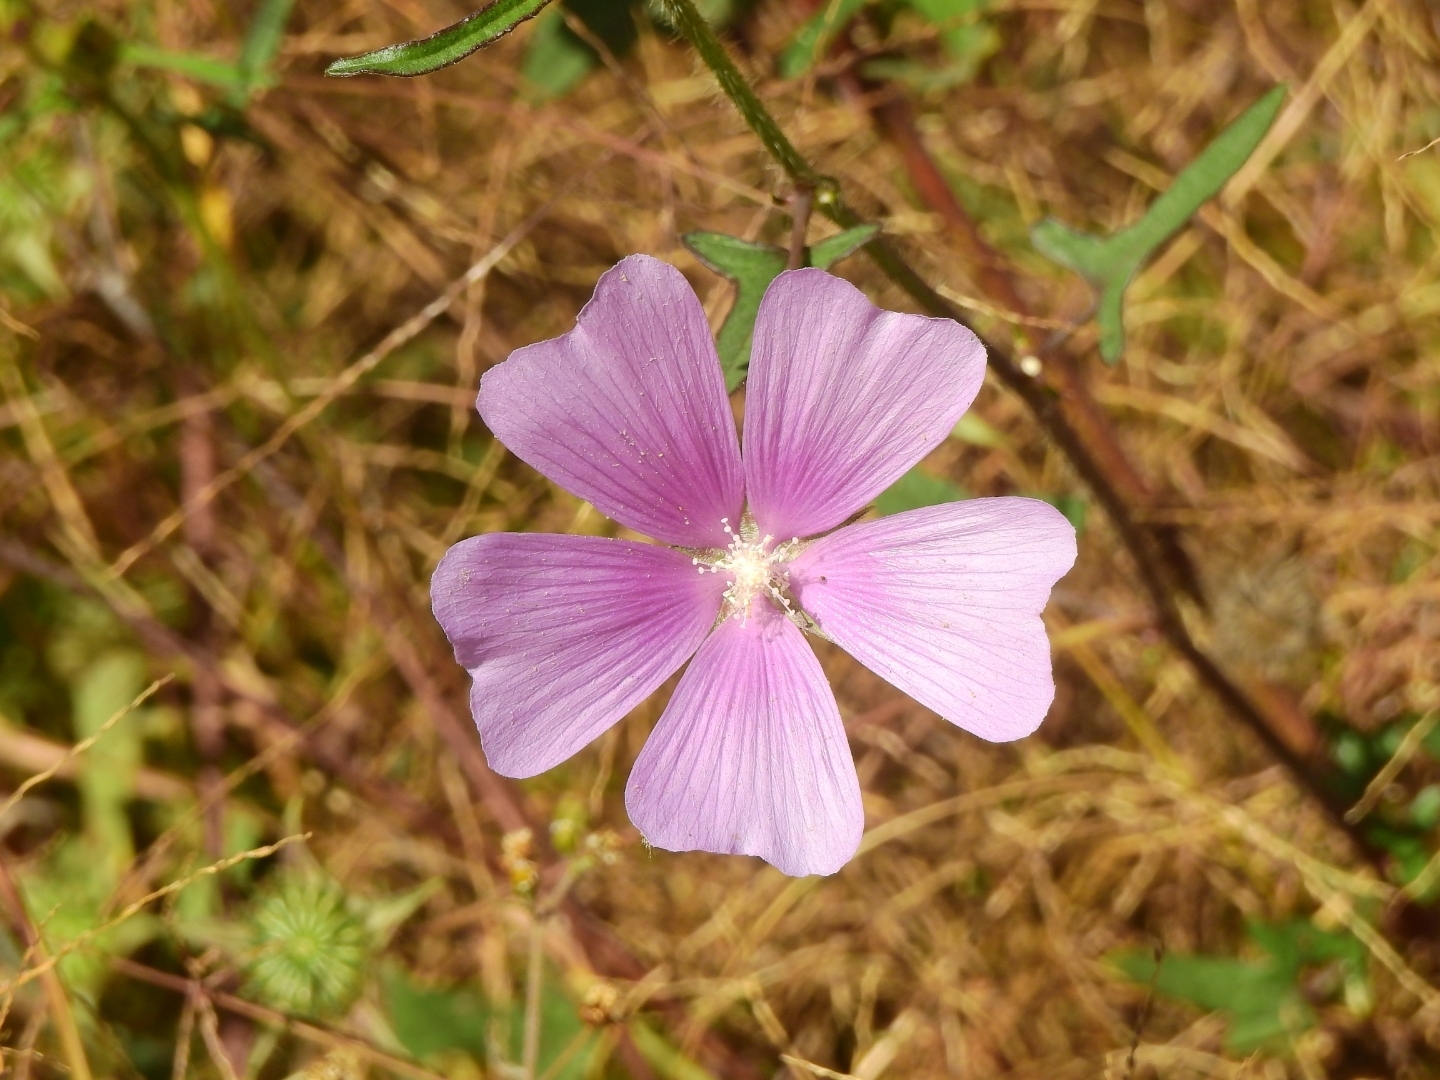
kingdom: Plantae
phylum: Tracheophyta
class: Magnoliopsida
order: Malvales
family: Malvaceae
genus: Anoda
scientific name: Anoda cristata
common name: Spurred anoda
